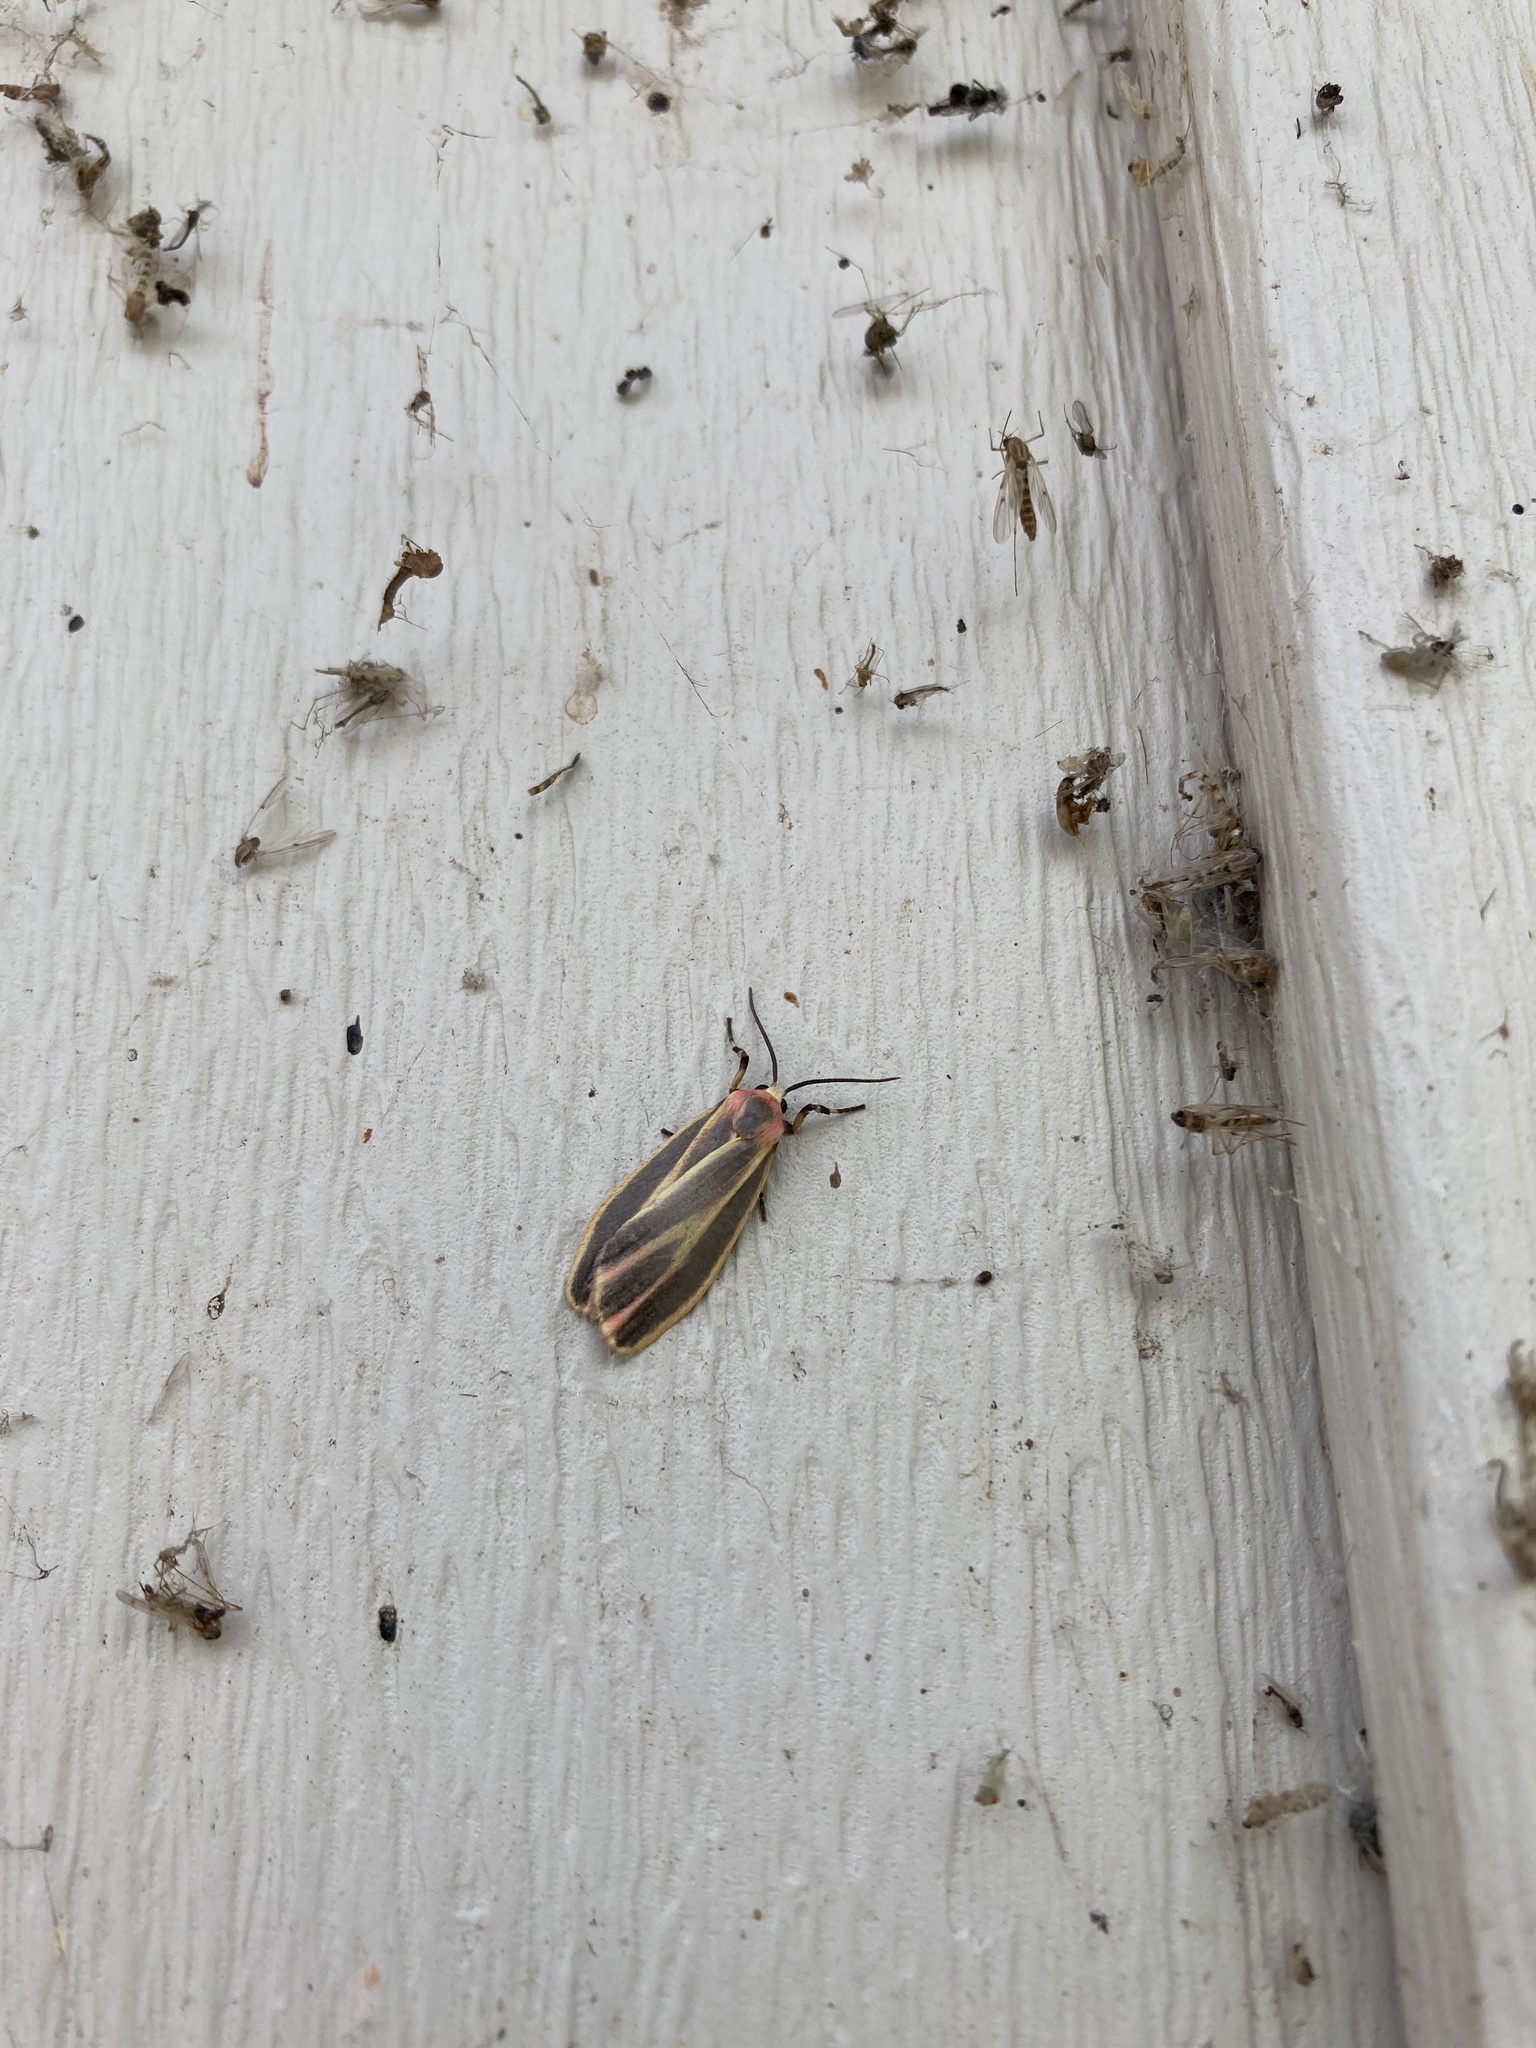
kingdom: Animalia
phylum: Arthropoda
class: Insecta
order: Lepidoptera
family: Erebidae
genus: Hypoprepia
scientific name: Hypoprepia fucosa
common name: Painted lichen moth
